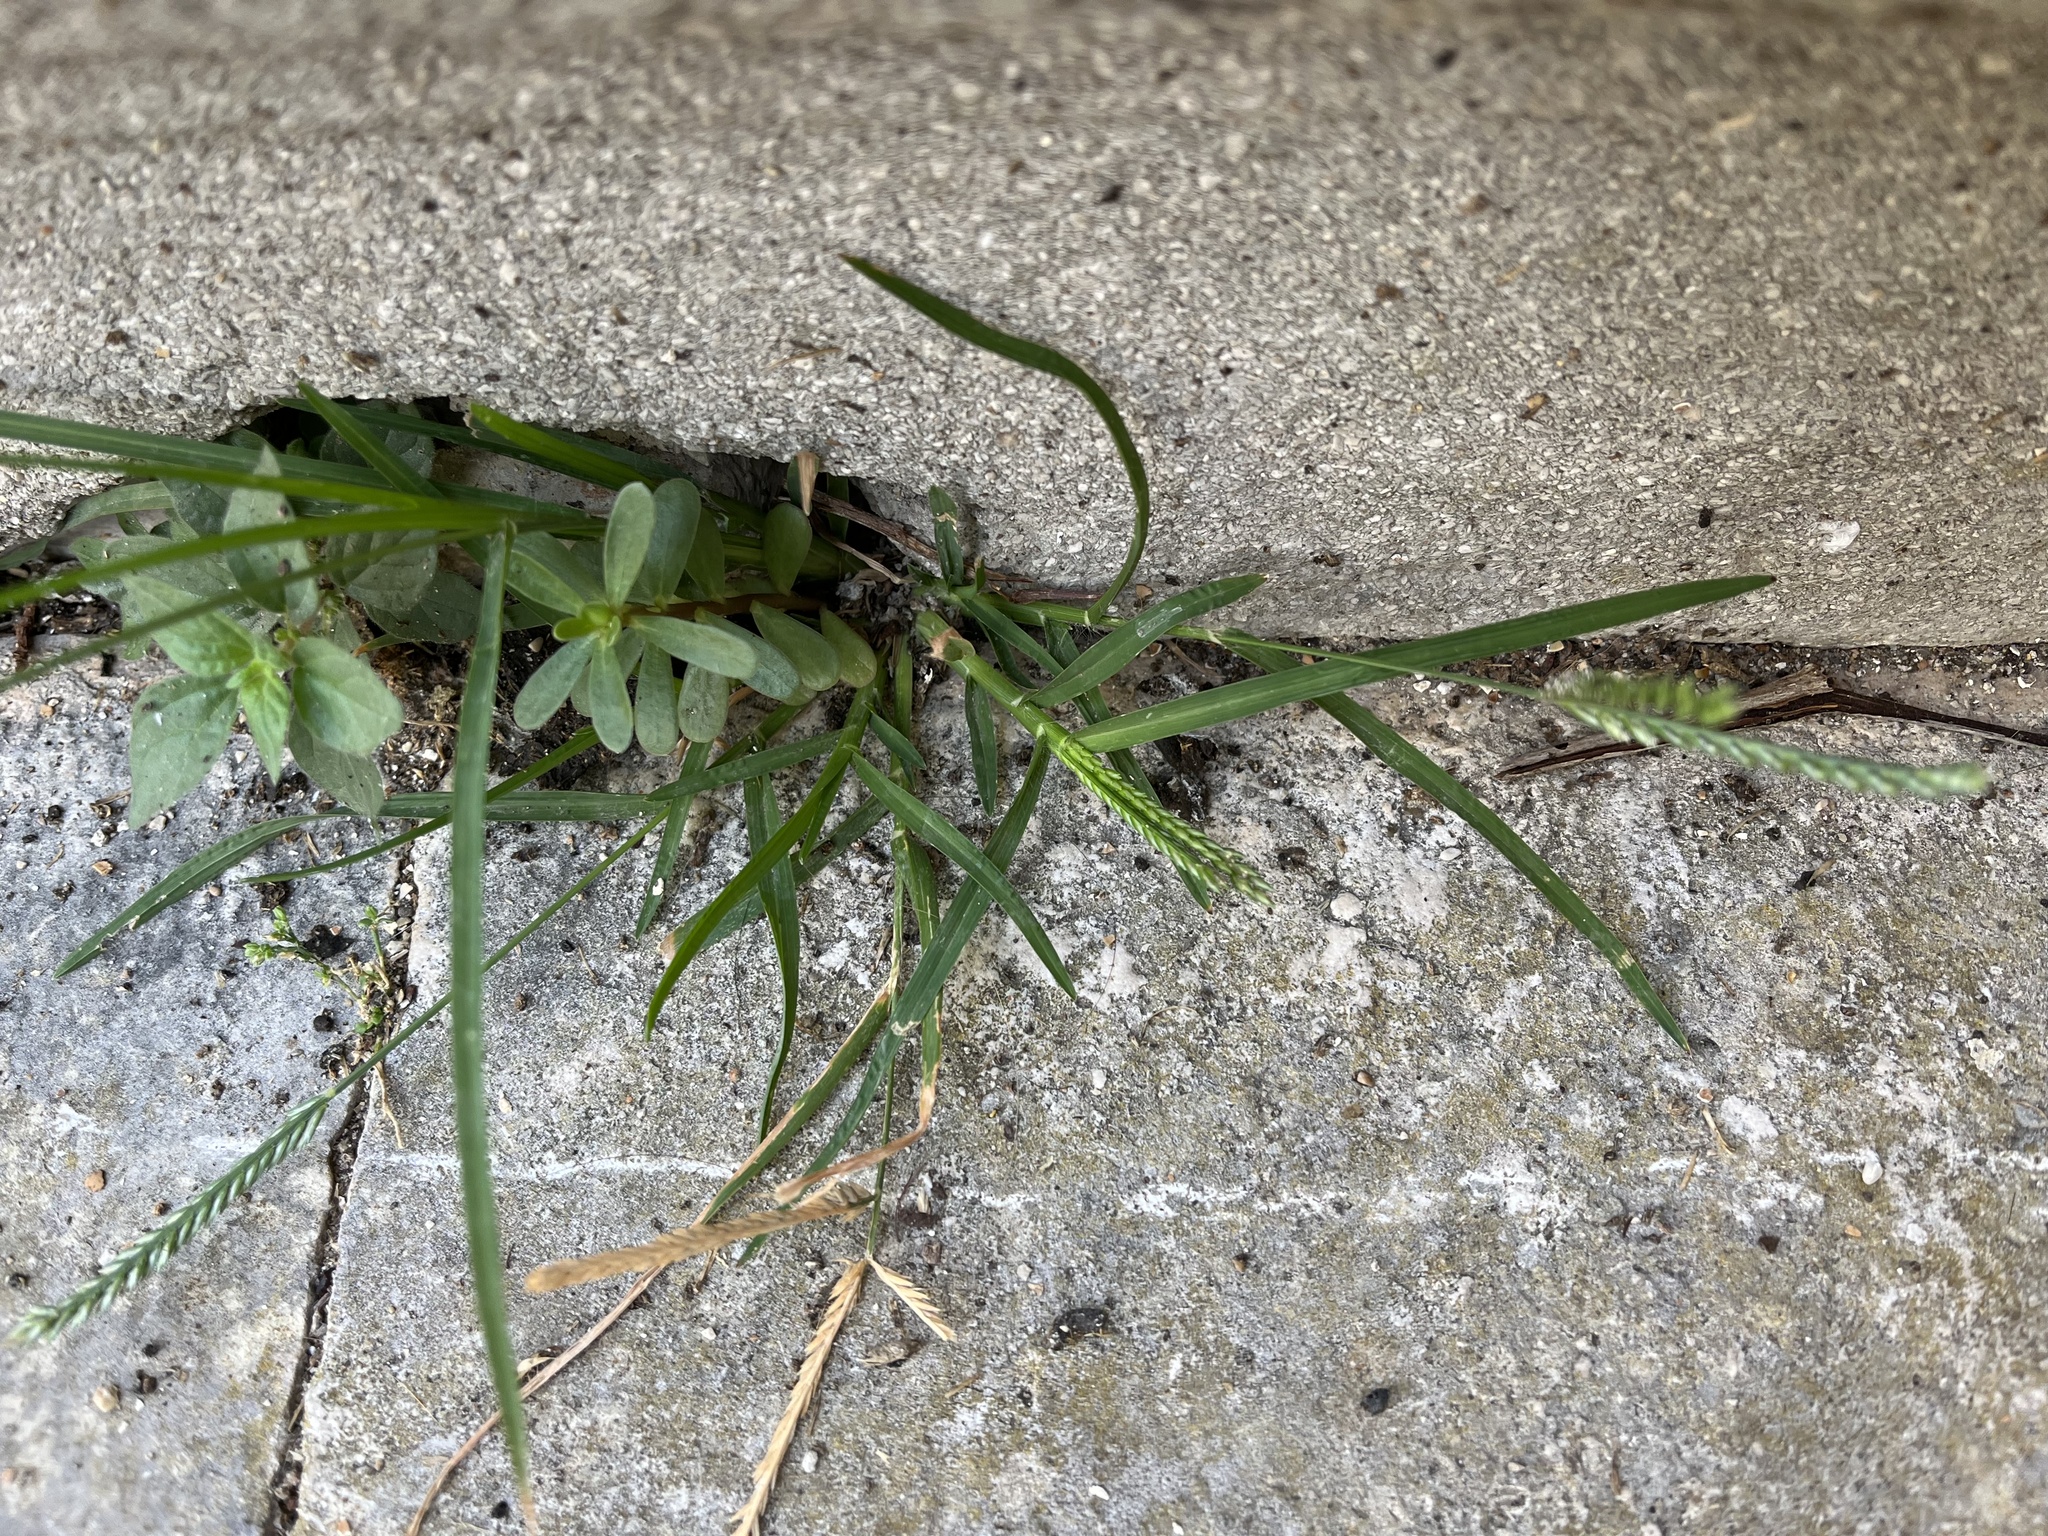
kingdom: Plantae
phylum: Tracheophyta
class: Liliopsida
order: Poales
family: Poaceae
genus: Eleusine
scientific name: Eleusine indica
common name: Yard-grass
